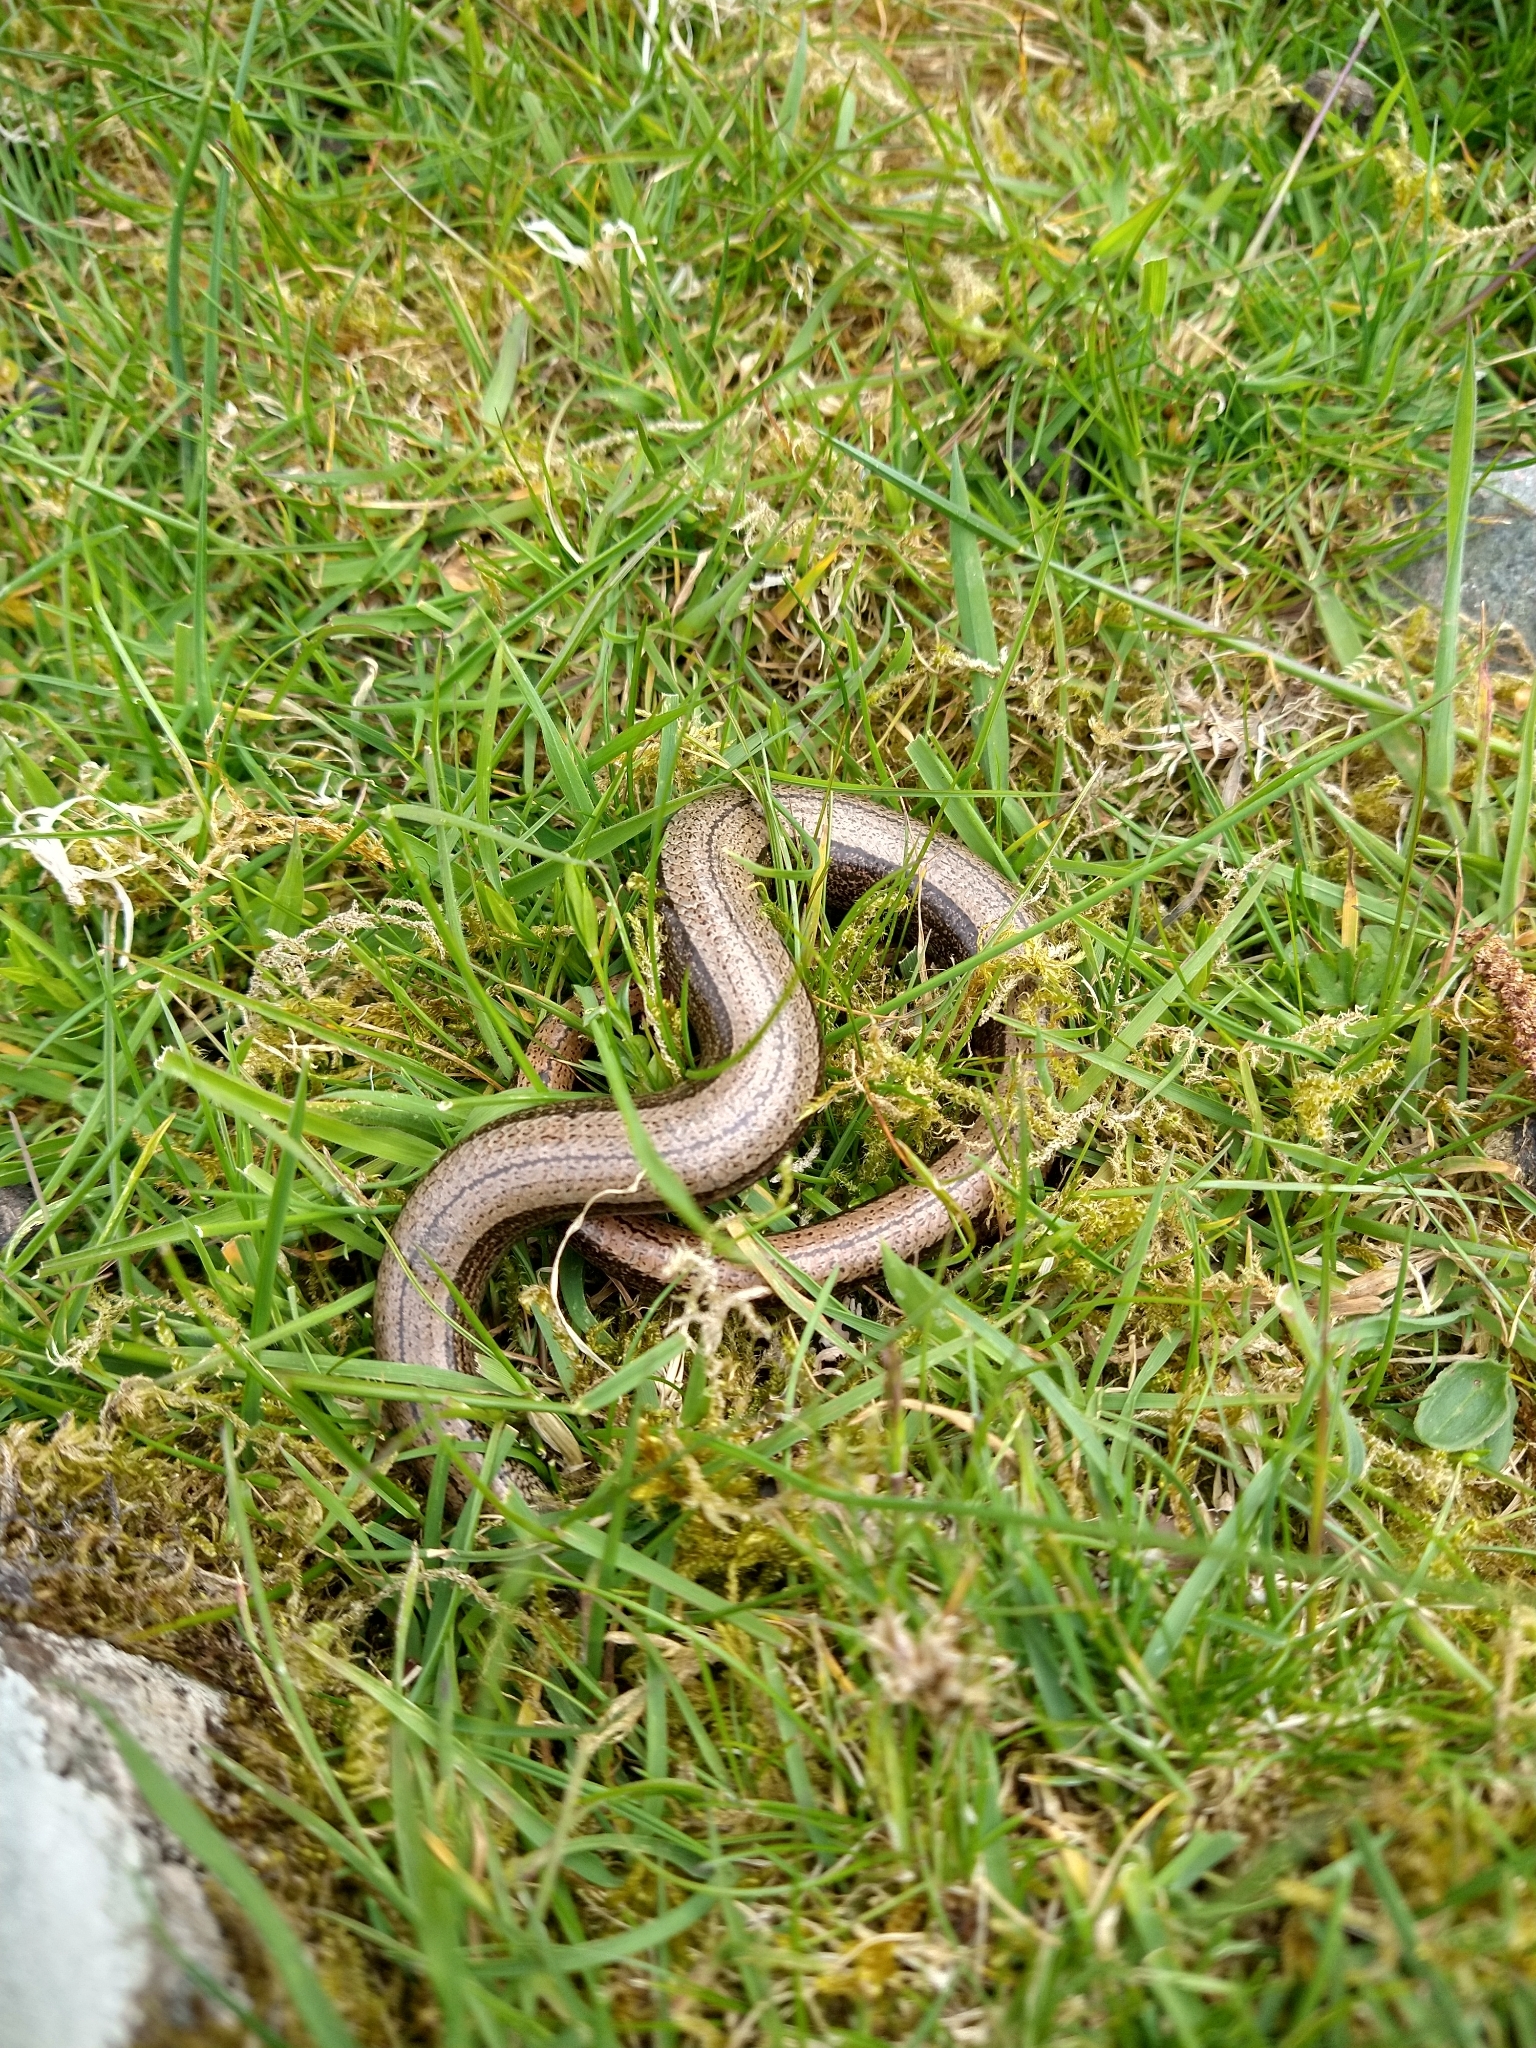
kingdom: Animalia
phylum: Chordata
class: Squamata
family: Anguidae
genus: Anguis
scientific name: Anguis fragilis
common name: Slow worm
